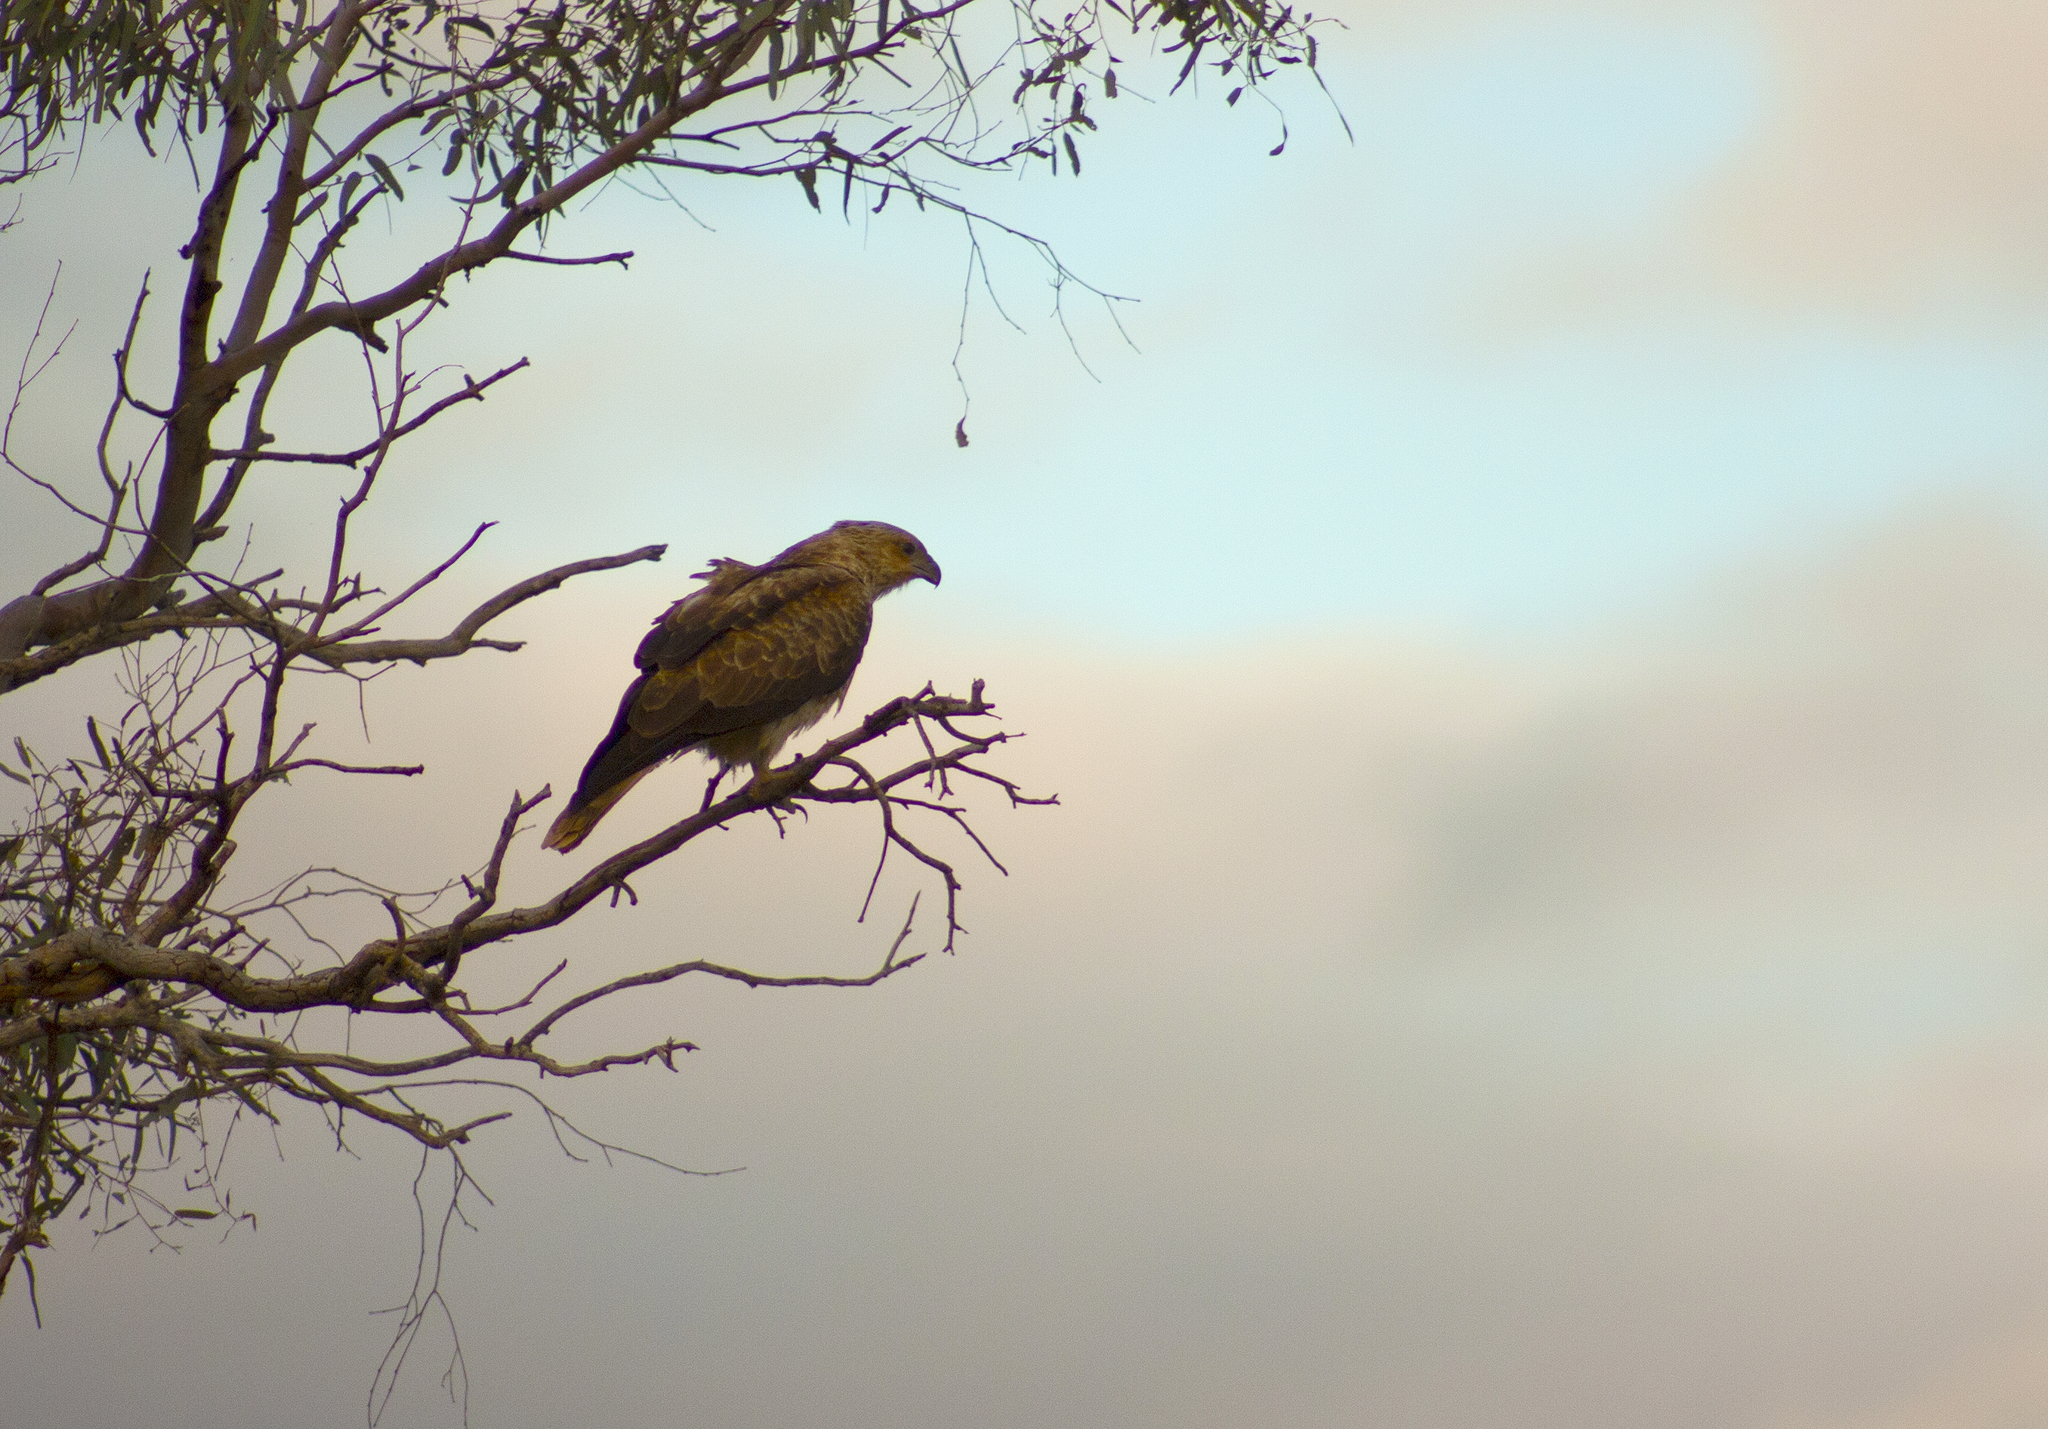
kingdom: Animalia
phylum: Chordata
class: Aves
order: Accipitriformes
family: Accipitridae
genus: Haliastur
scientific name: Haliastur sphenurus
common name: Whistling kite
